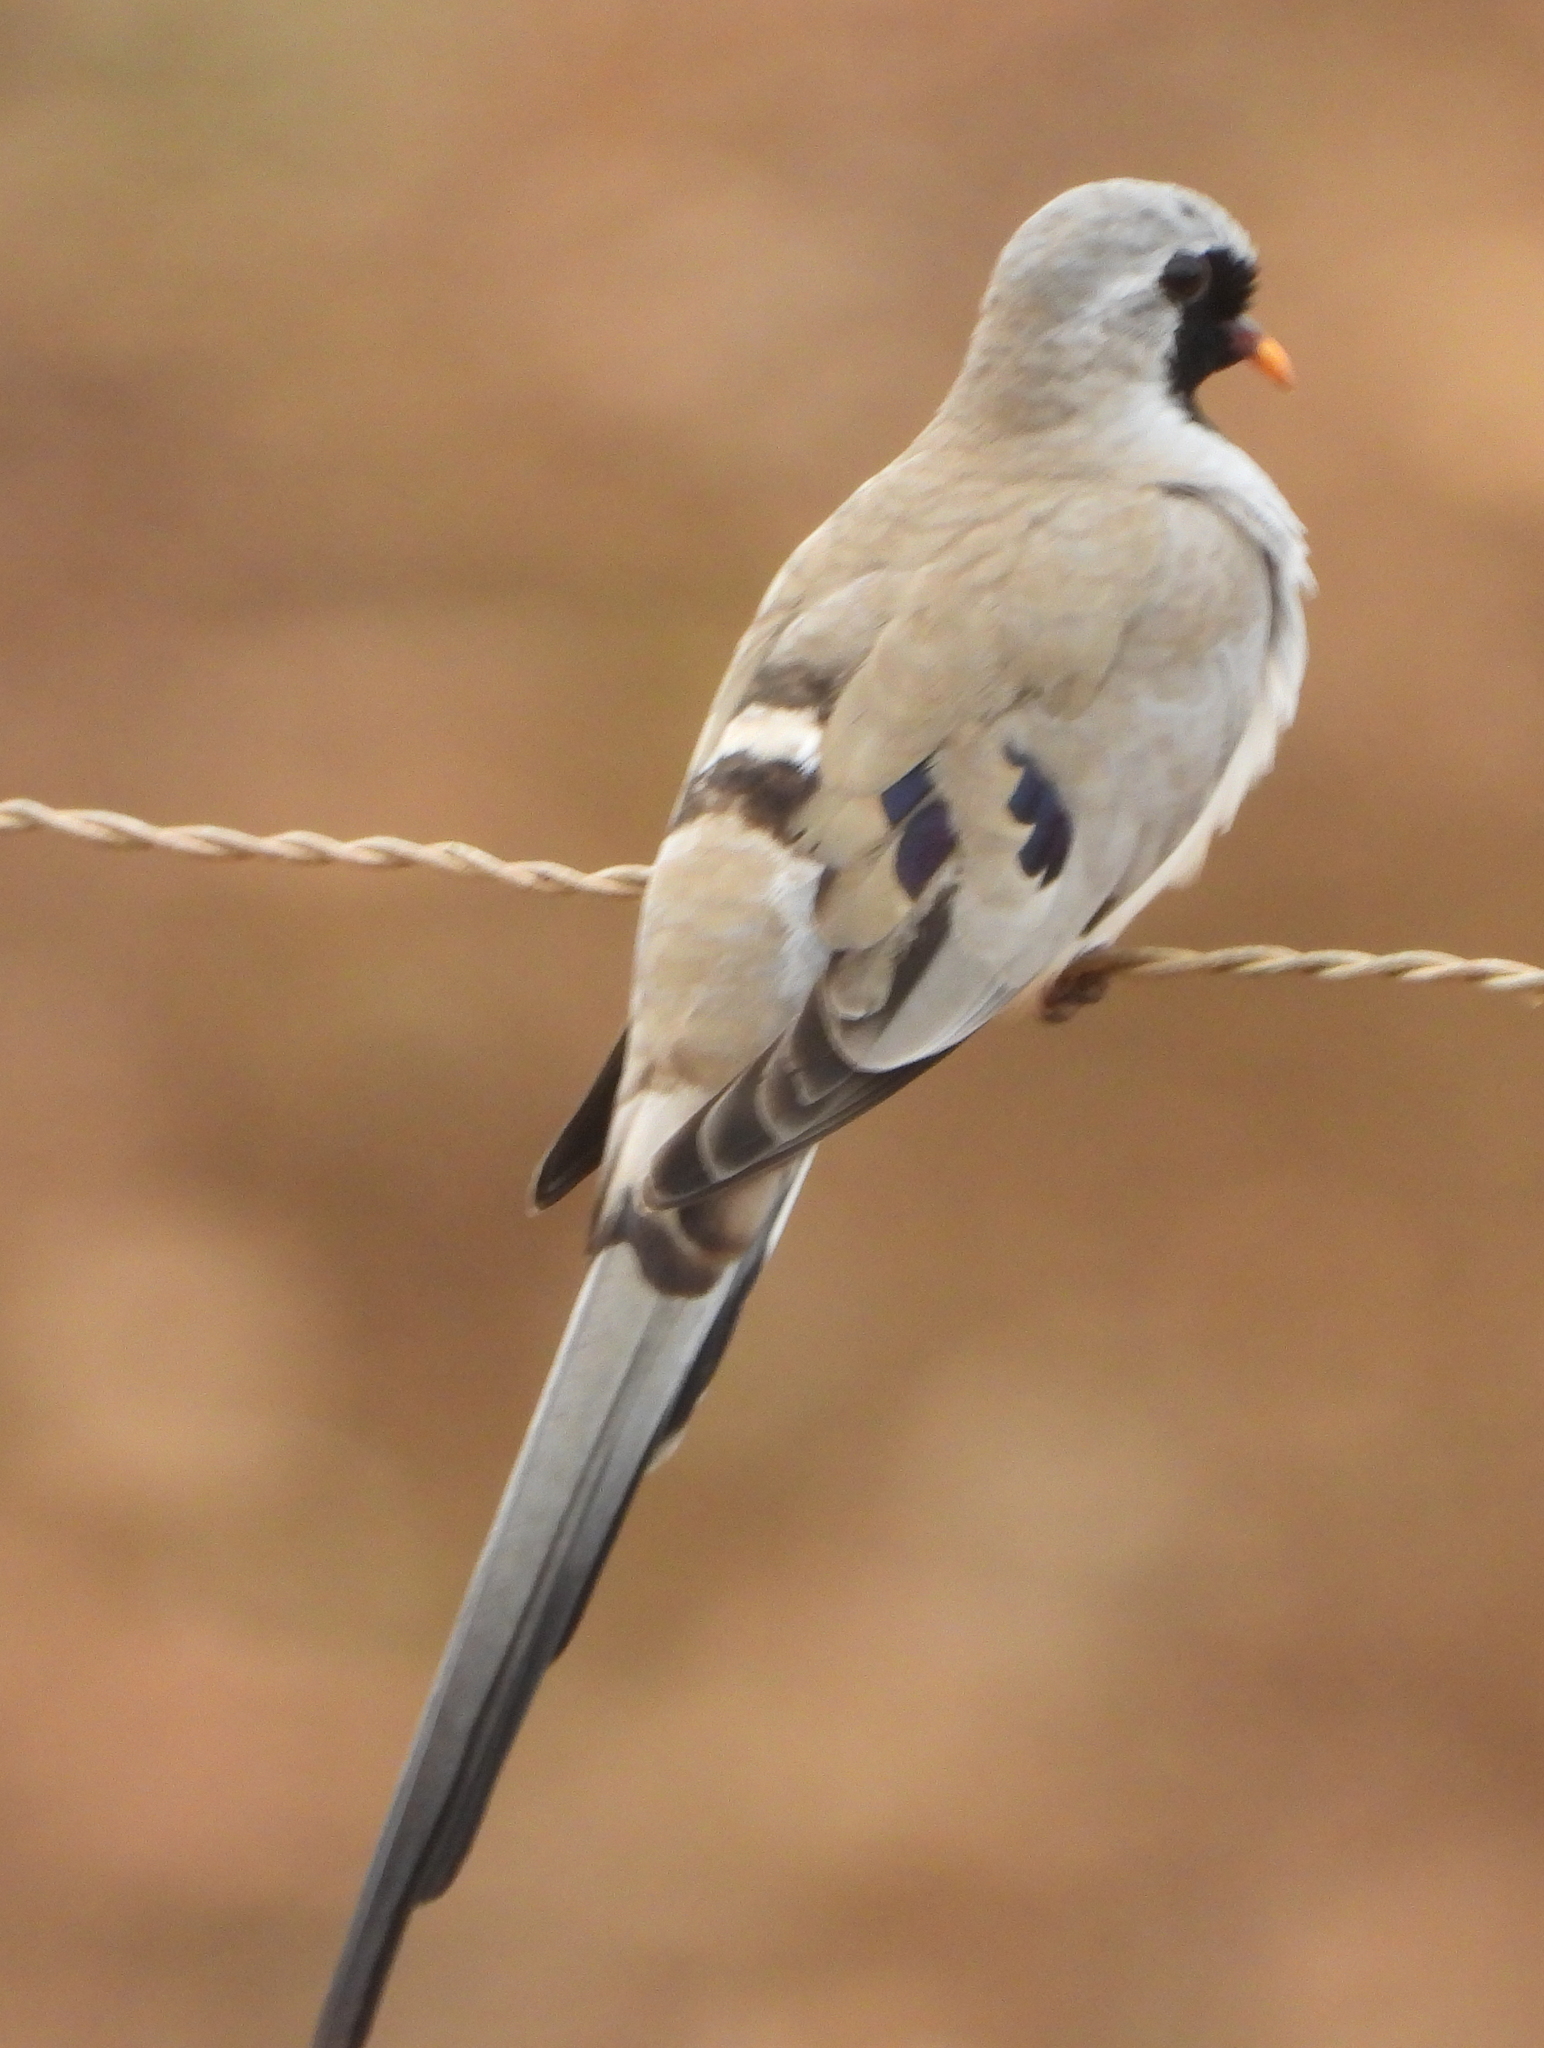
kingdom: Animalia
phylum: Chordata
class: Aves
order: Columbiformes
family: Columbidae
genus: Oena
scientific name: Oena capensis
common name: Namaqua dove
